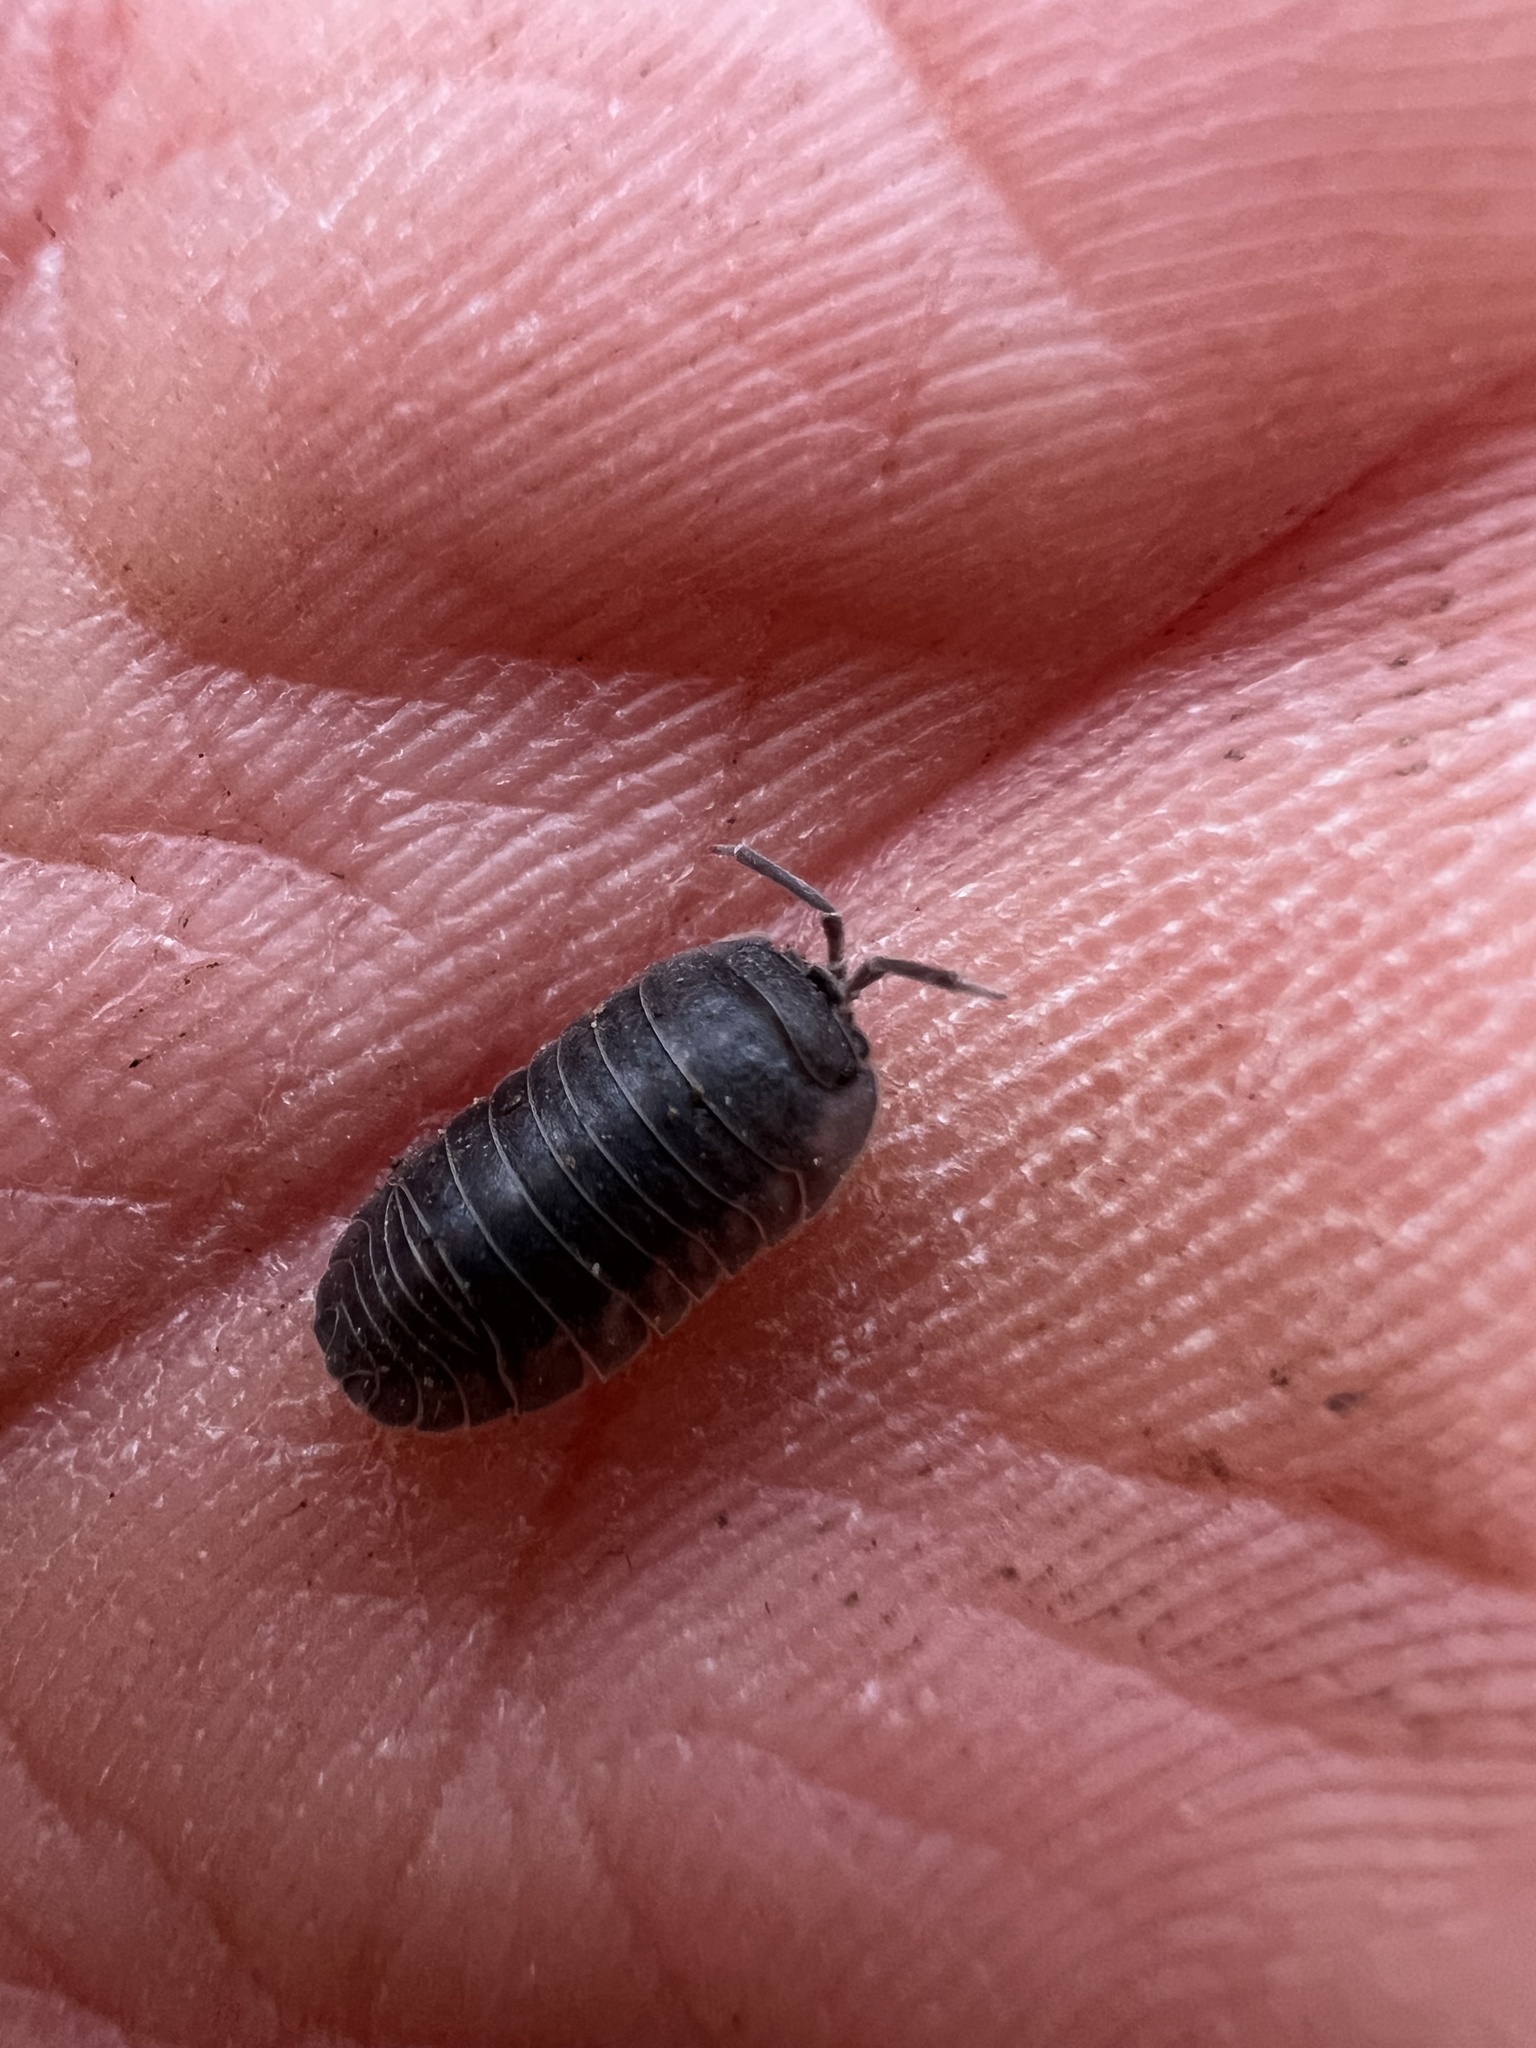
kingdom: Animalia
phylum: Arthropoda
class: Malacostraca
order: Isopoda
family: Armadillidiidae
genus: Armadillidium
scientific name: Armadillidium nasatum
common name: Isopod
